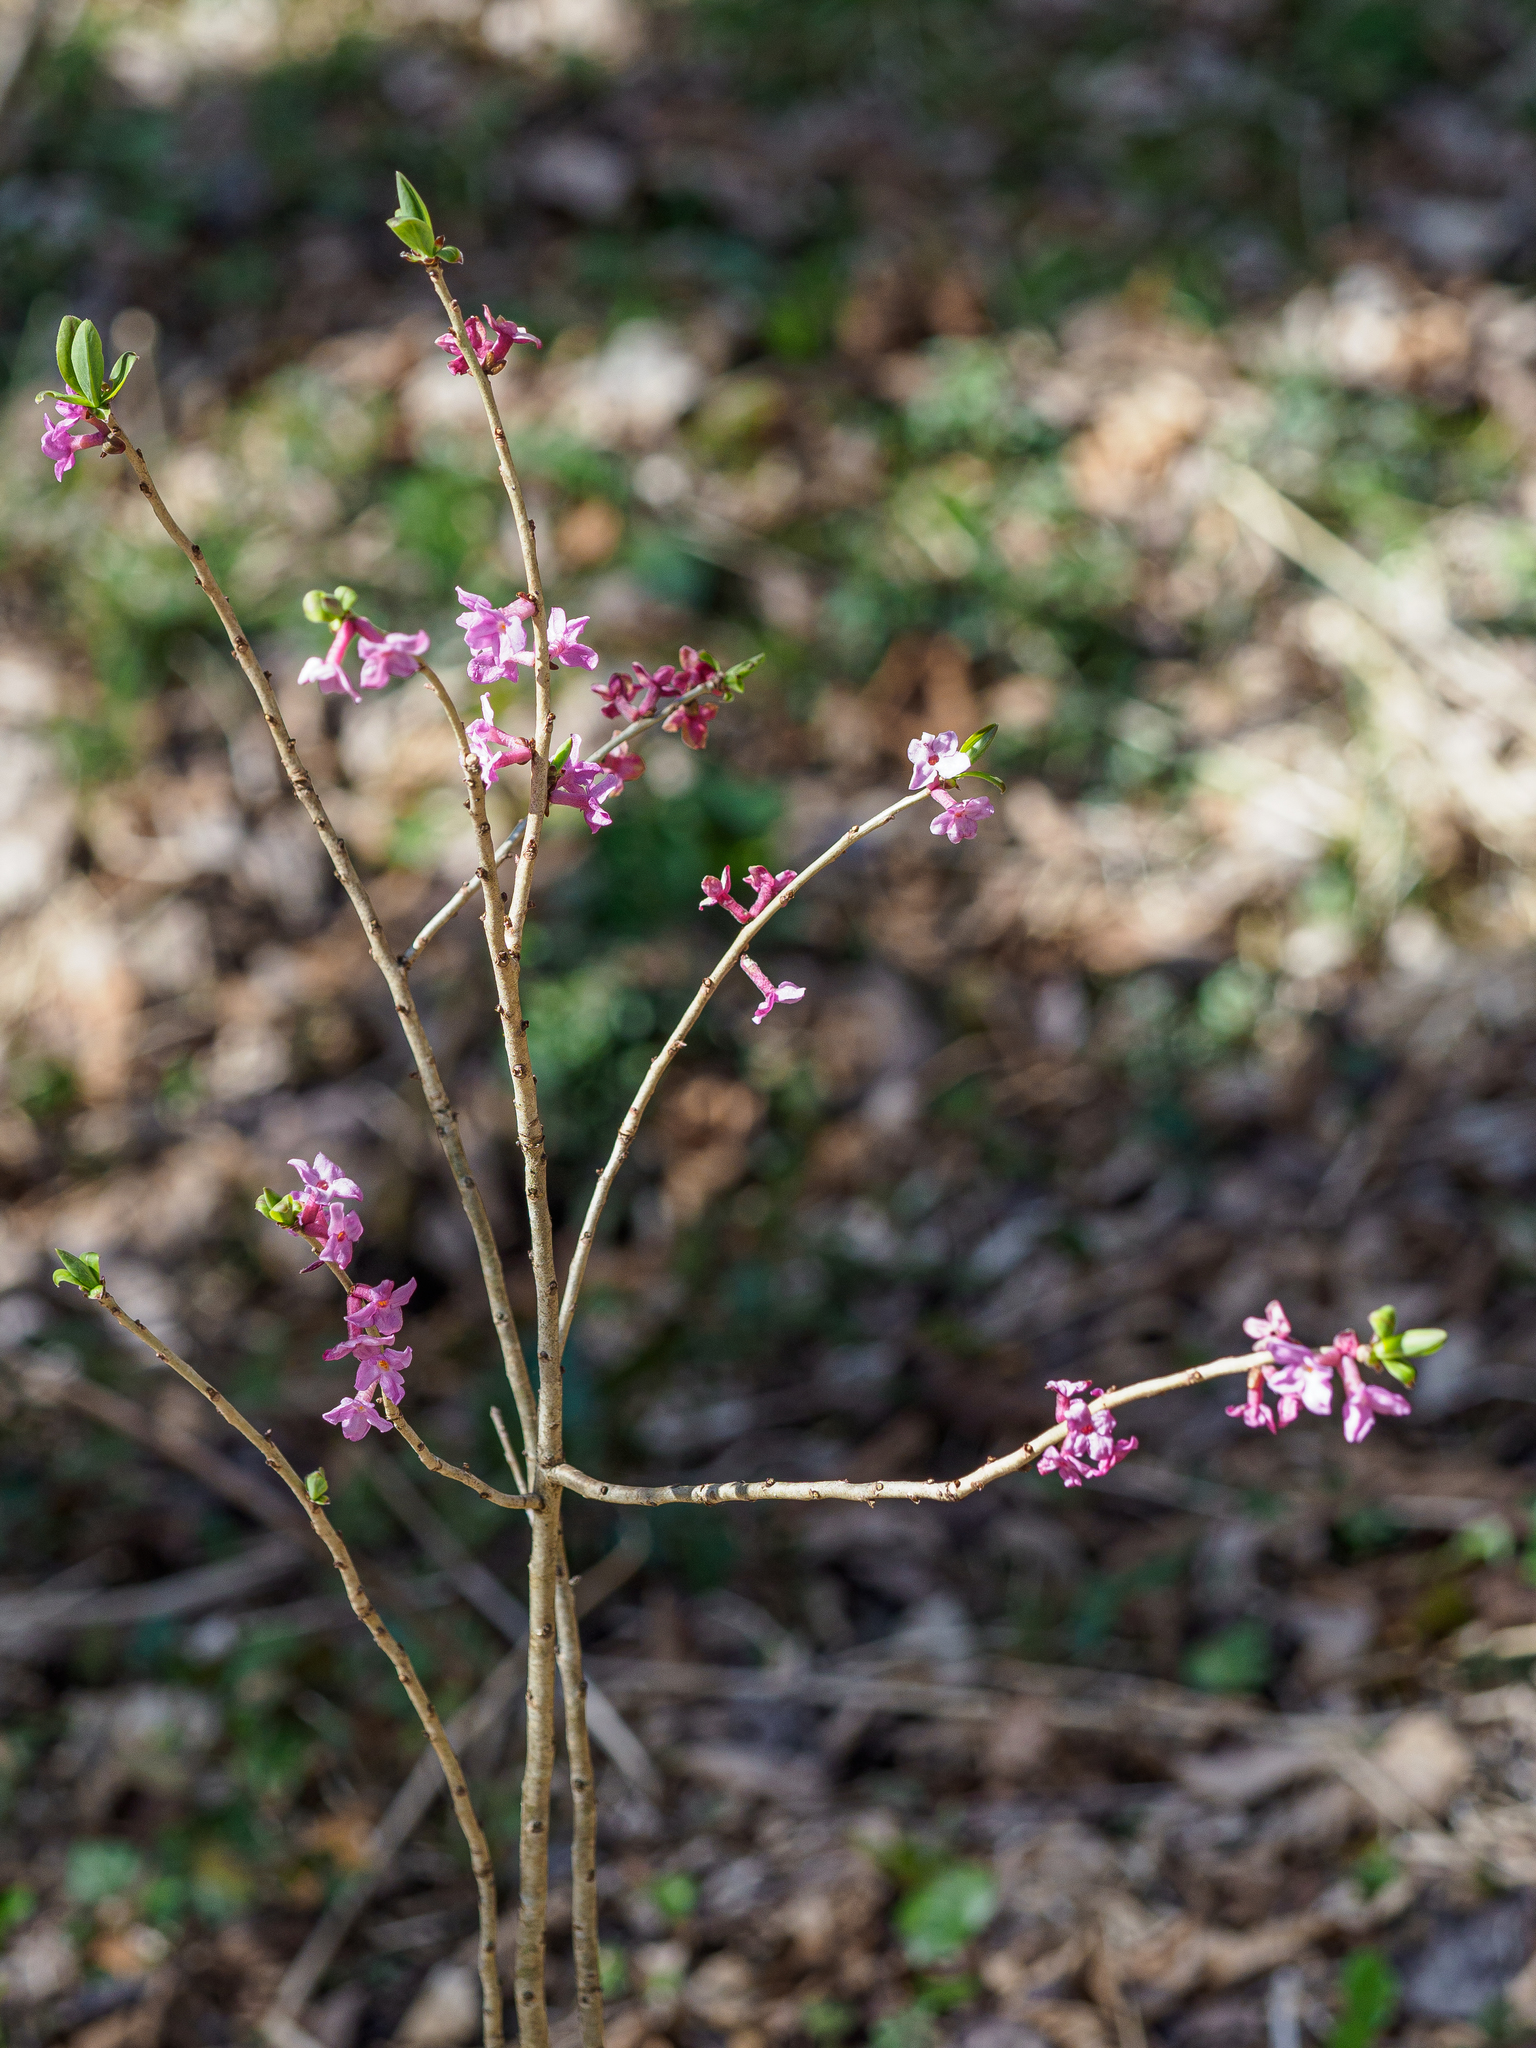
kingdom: Plantae
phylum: Tracheophyta
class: Magnoliopsida
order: Malvales
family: Thymelaeaceae
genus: Daphne
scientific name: Daphne mezereum
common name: Mezereon
